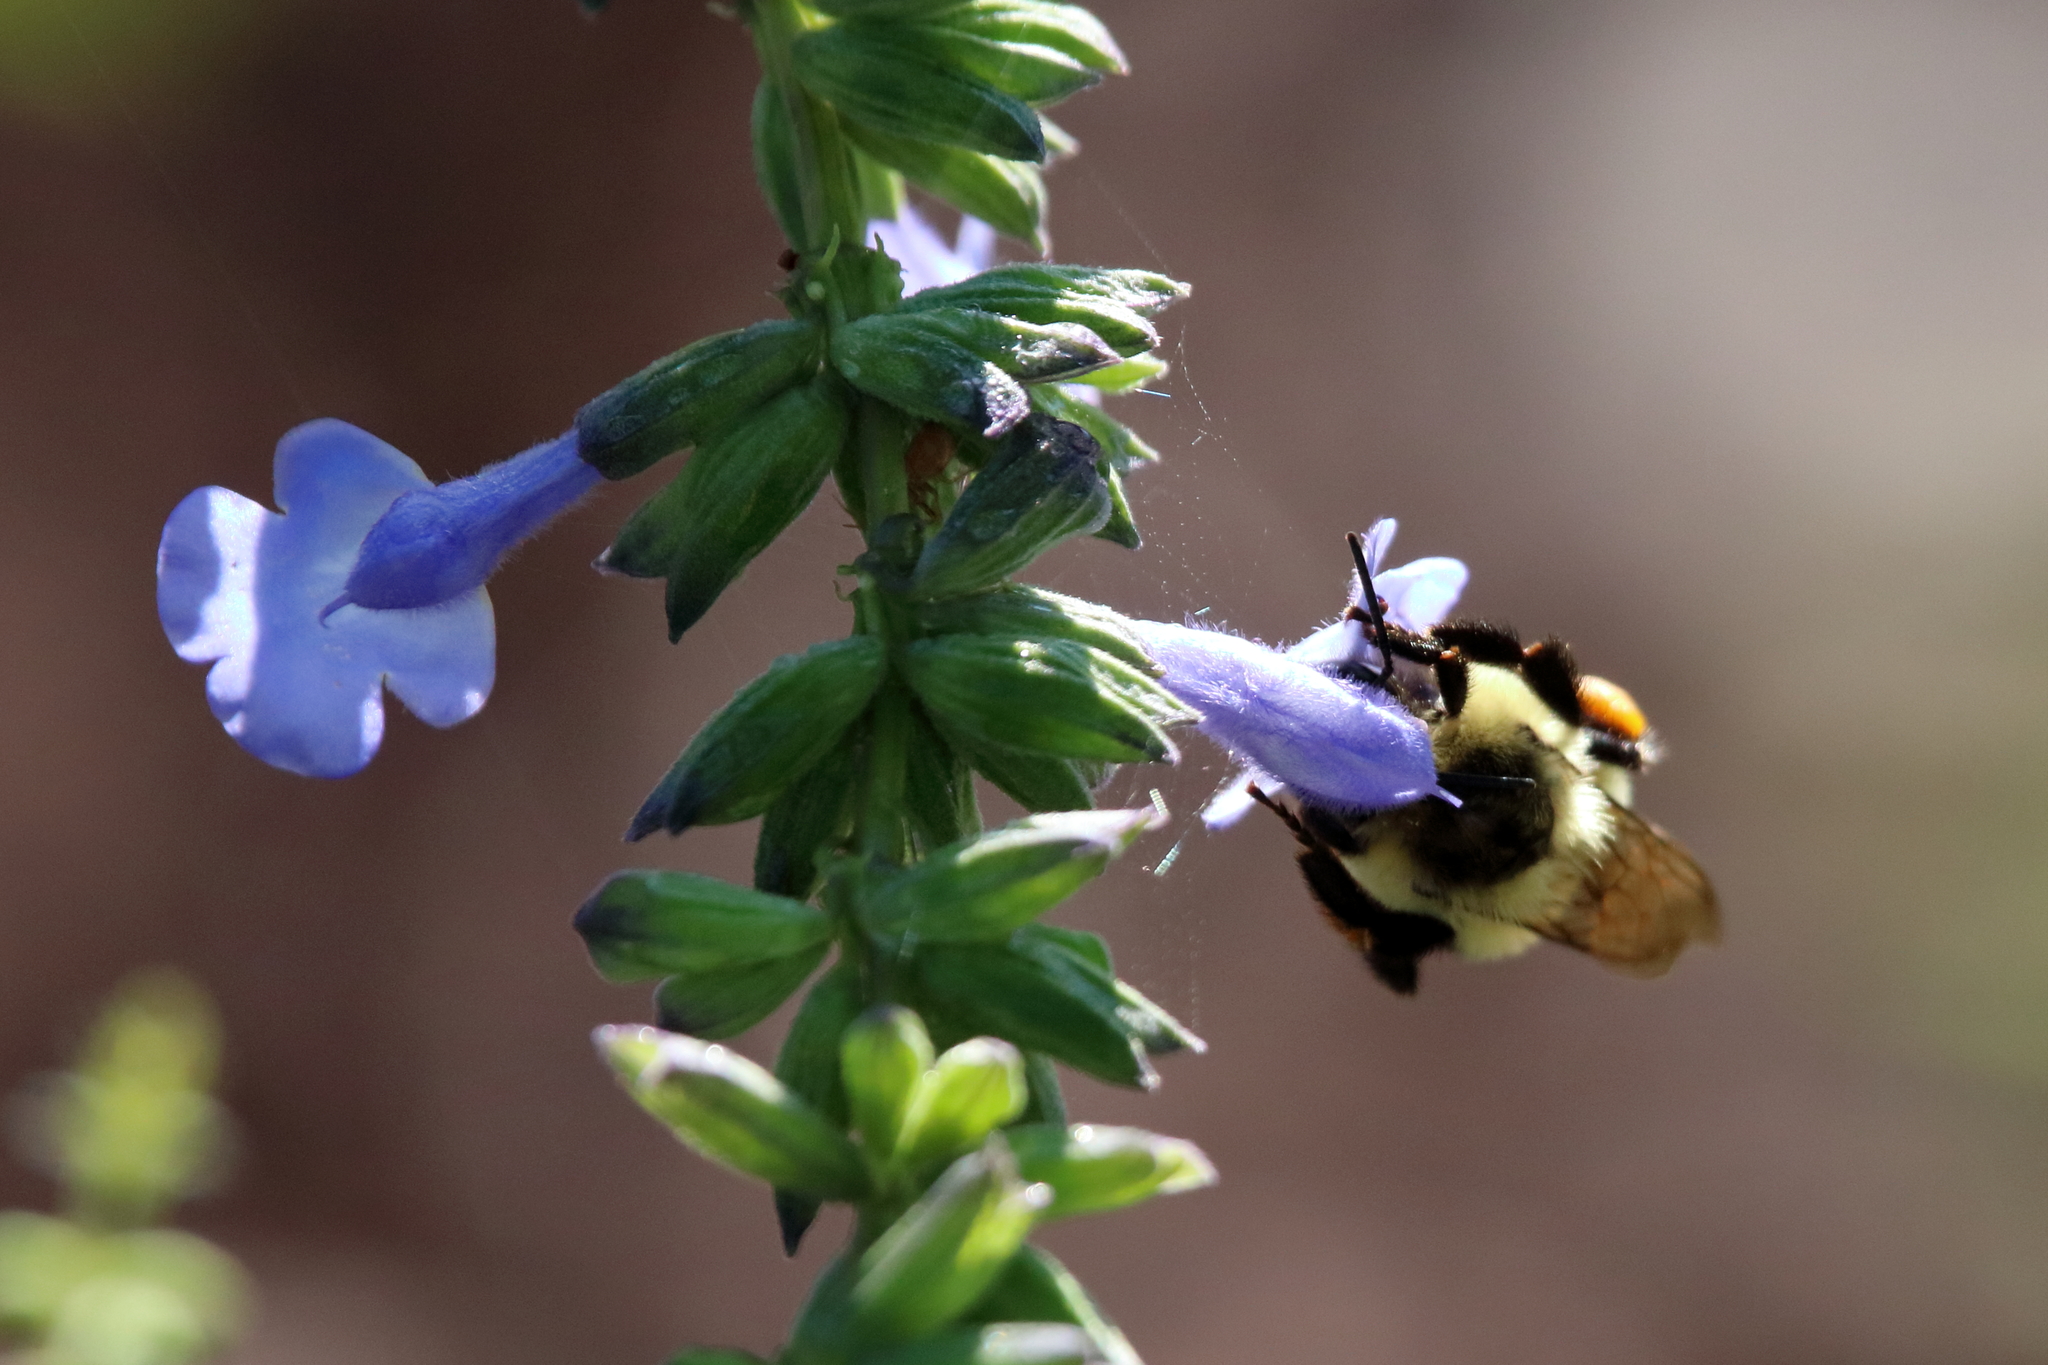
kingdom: Animalia
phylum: Arthropoda
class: Insecta
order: Hymenoptera
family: Apidae
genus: Bombus
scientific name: Bombus impatiens
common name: Common eastern bumble bee
